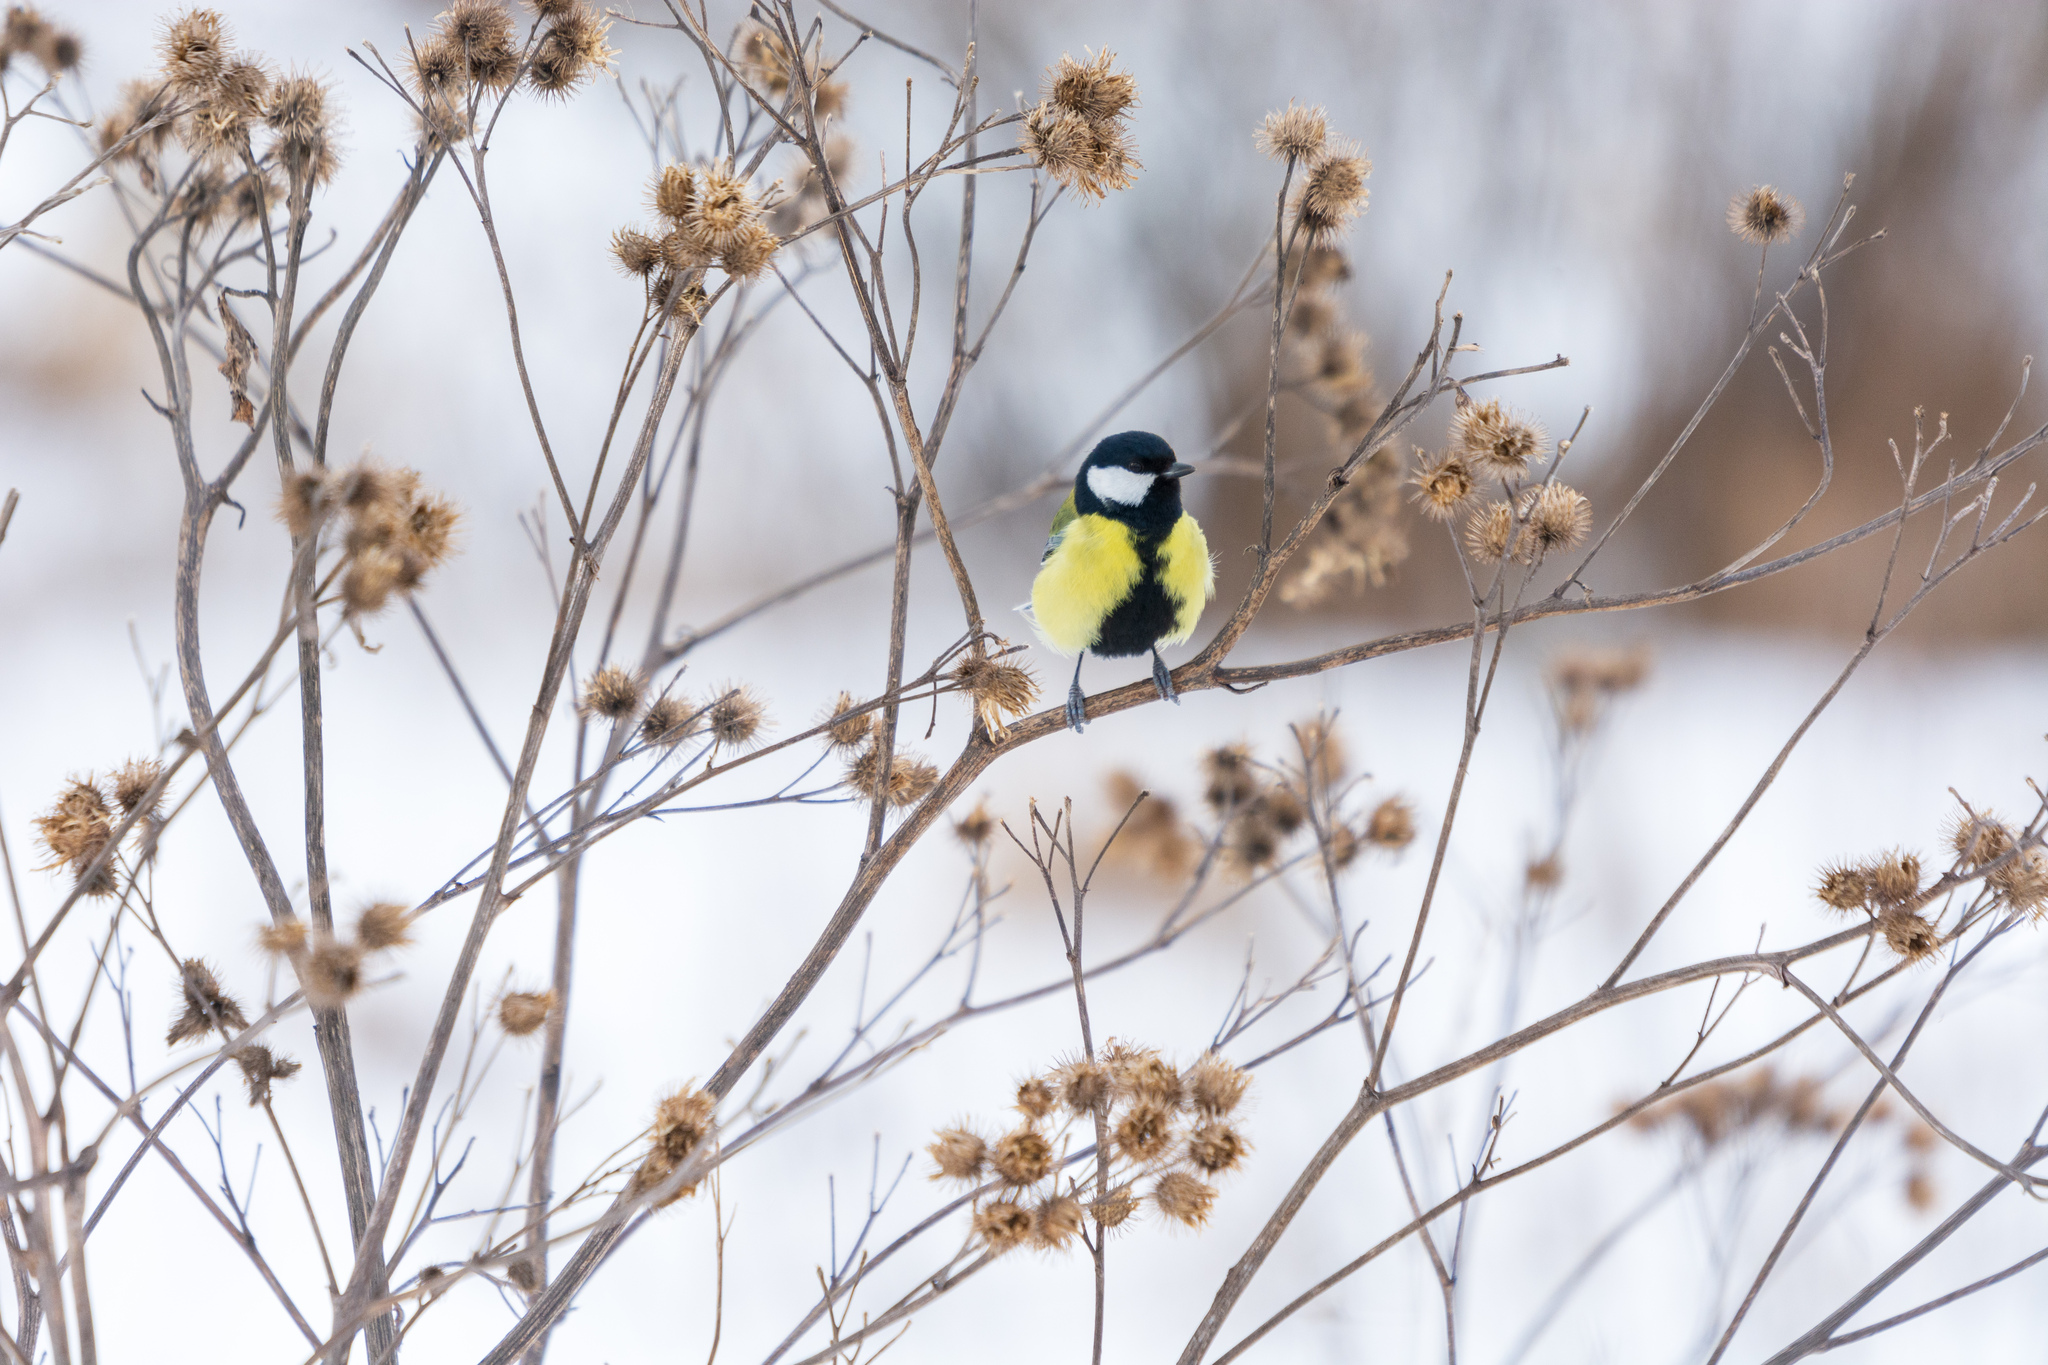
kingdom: Animalia
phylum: Chordata
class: Aves
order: Passeriformes
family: Paridae
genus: Parus
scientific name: Parus major
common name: Great tit
